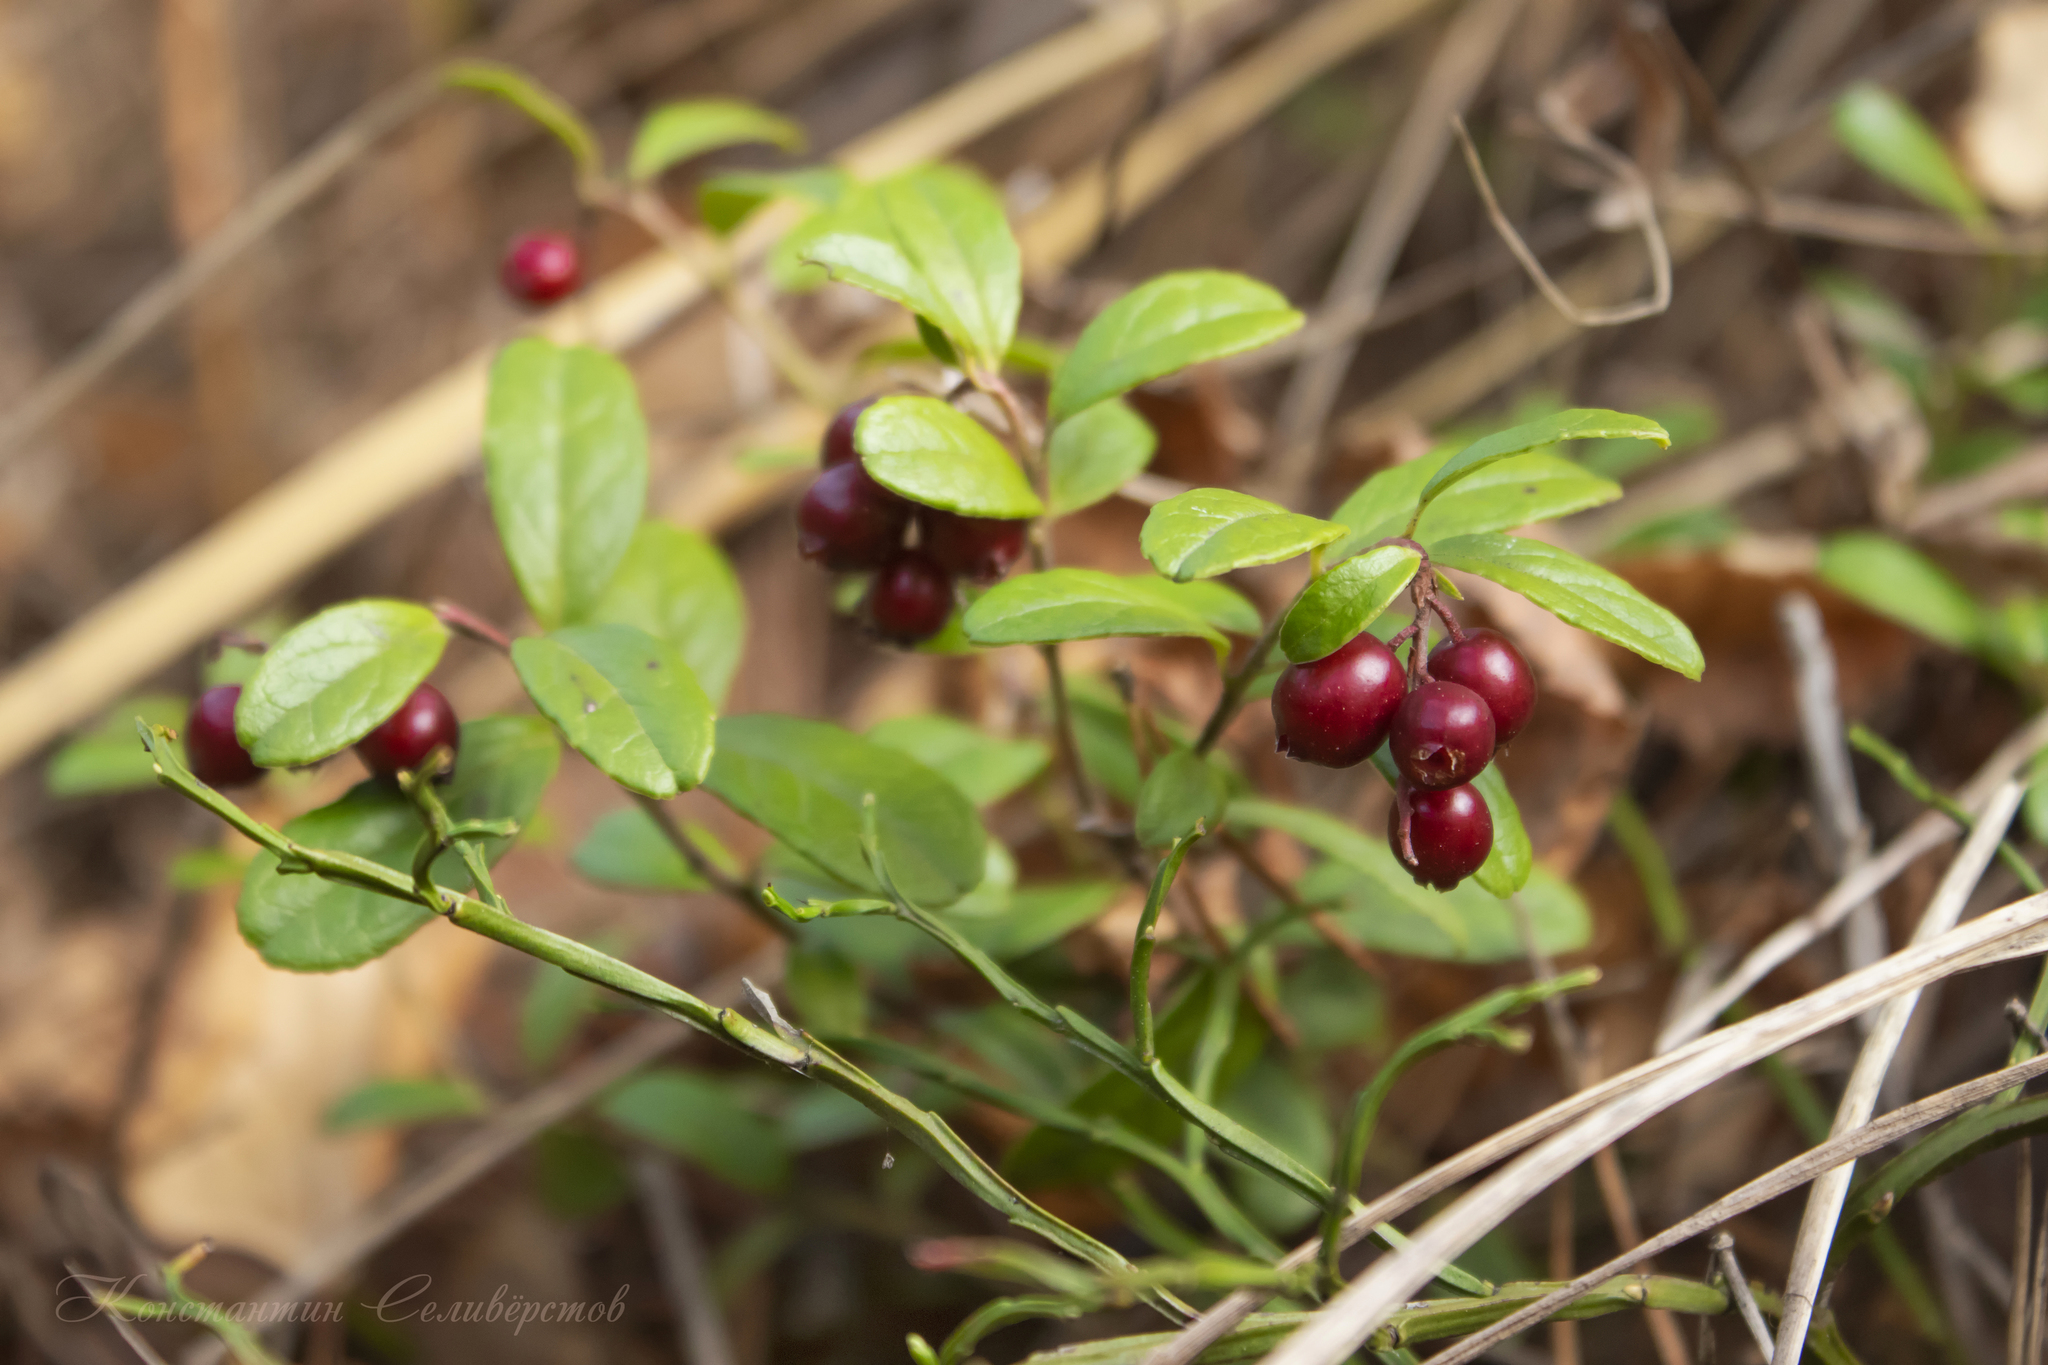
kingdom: Plantae
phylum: Tracheophyta
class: Magnoliopsida
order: Ericales
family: Ericaceae
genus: Vaccinium
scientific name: Vaccinium vitis-idaea
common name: Cowberry
